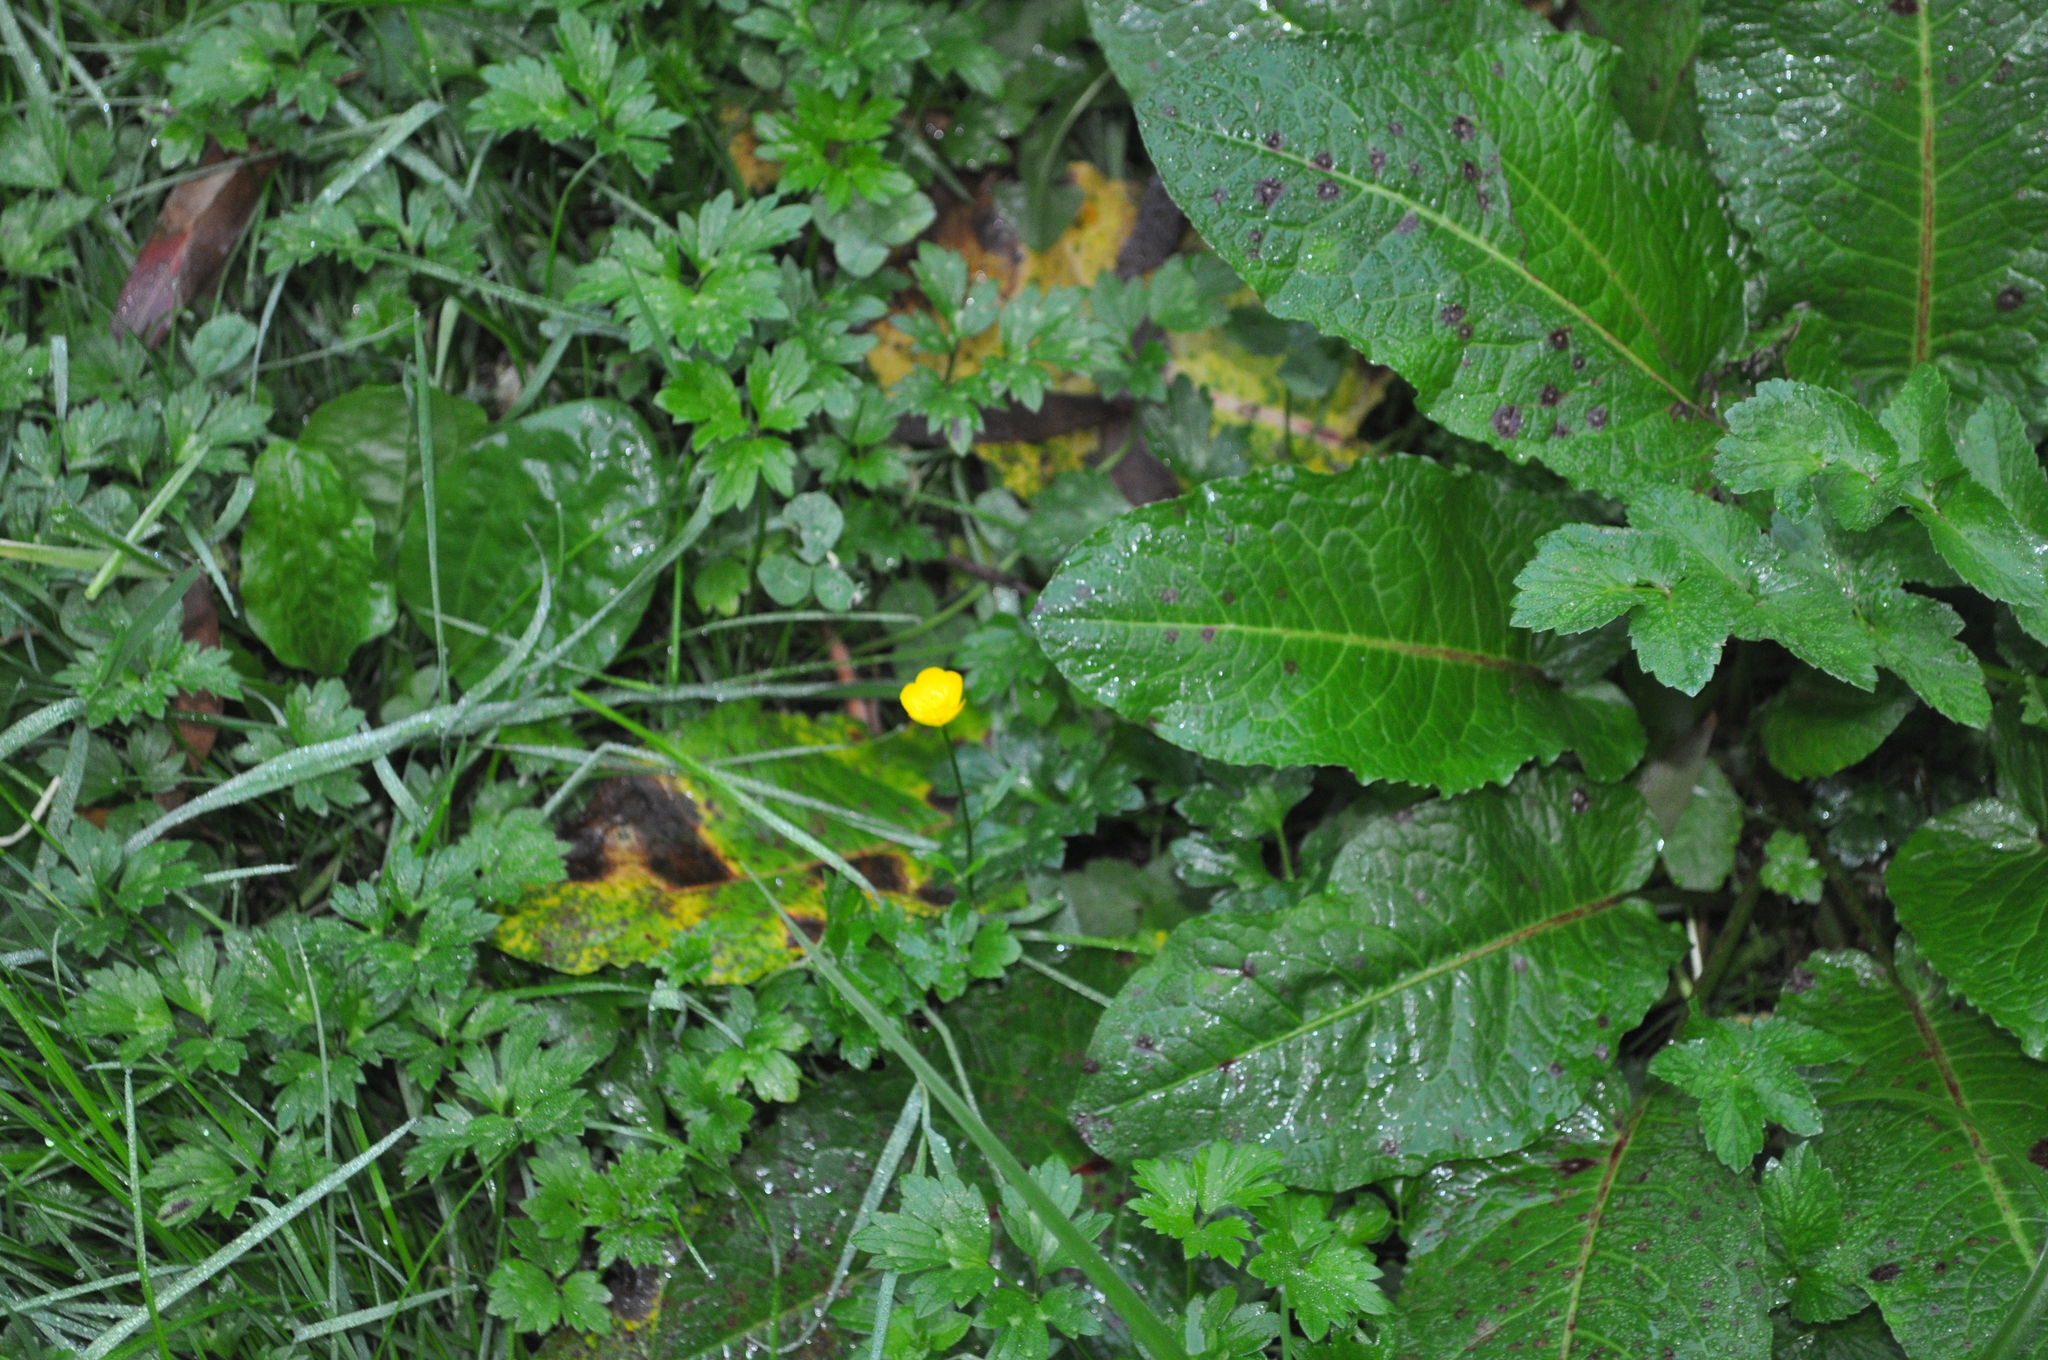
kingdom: Plantae
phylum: Tracheophyta
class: Magnoliopsida
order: Ranunculales
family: Ranunculaceae
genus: Ranunculus
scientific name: Ranunculus repens
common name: Creeping buttercup
